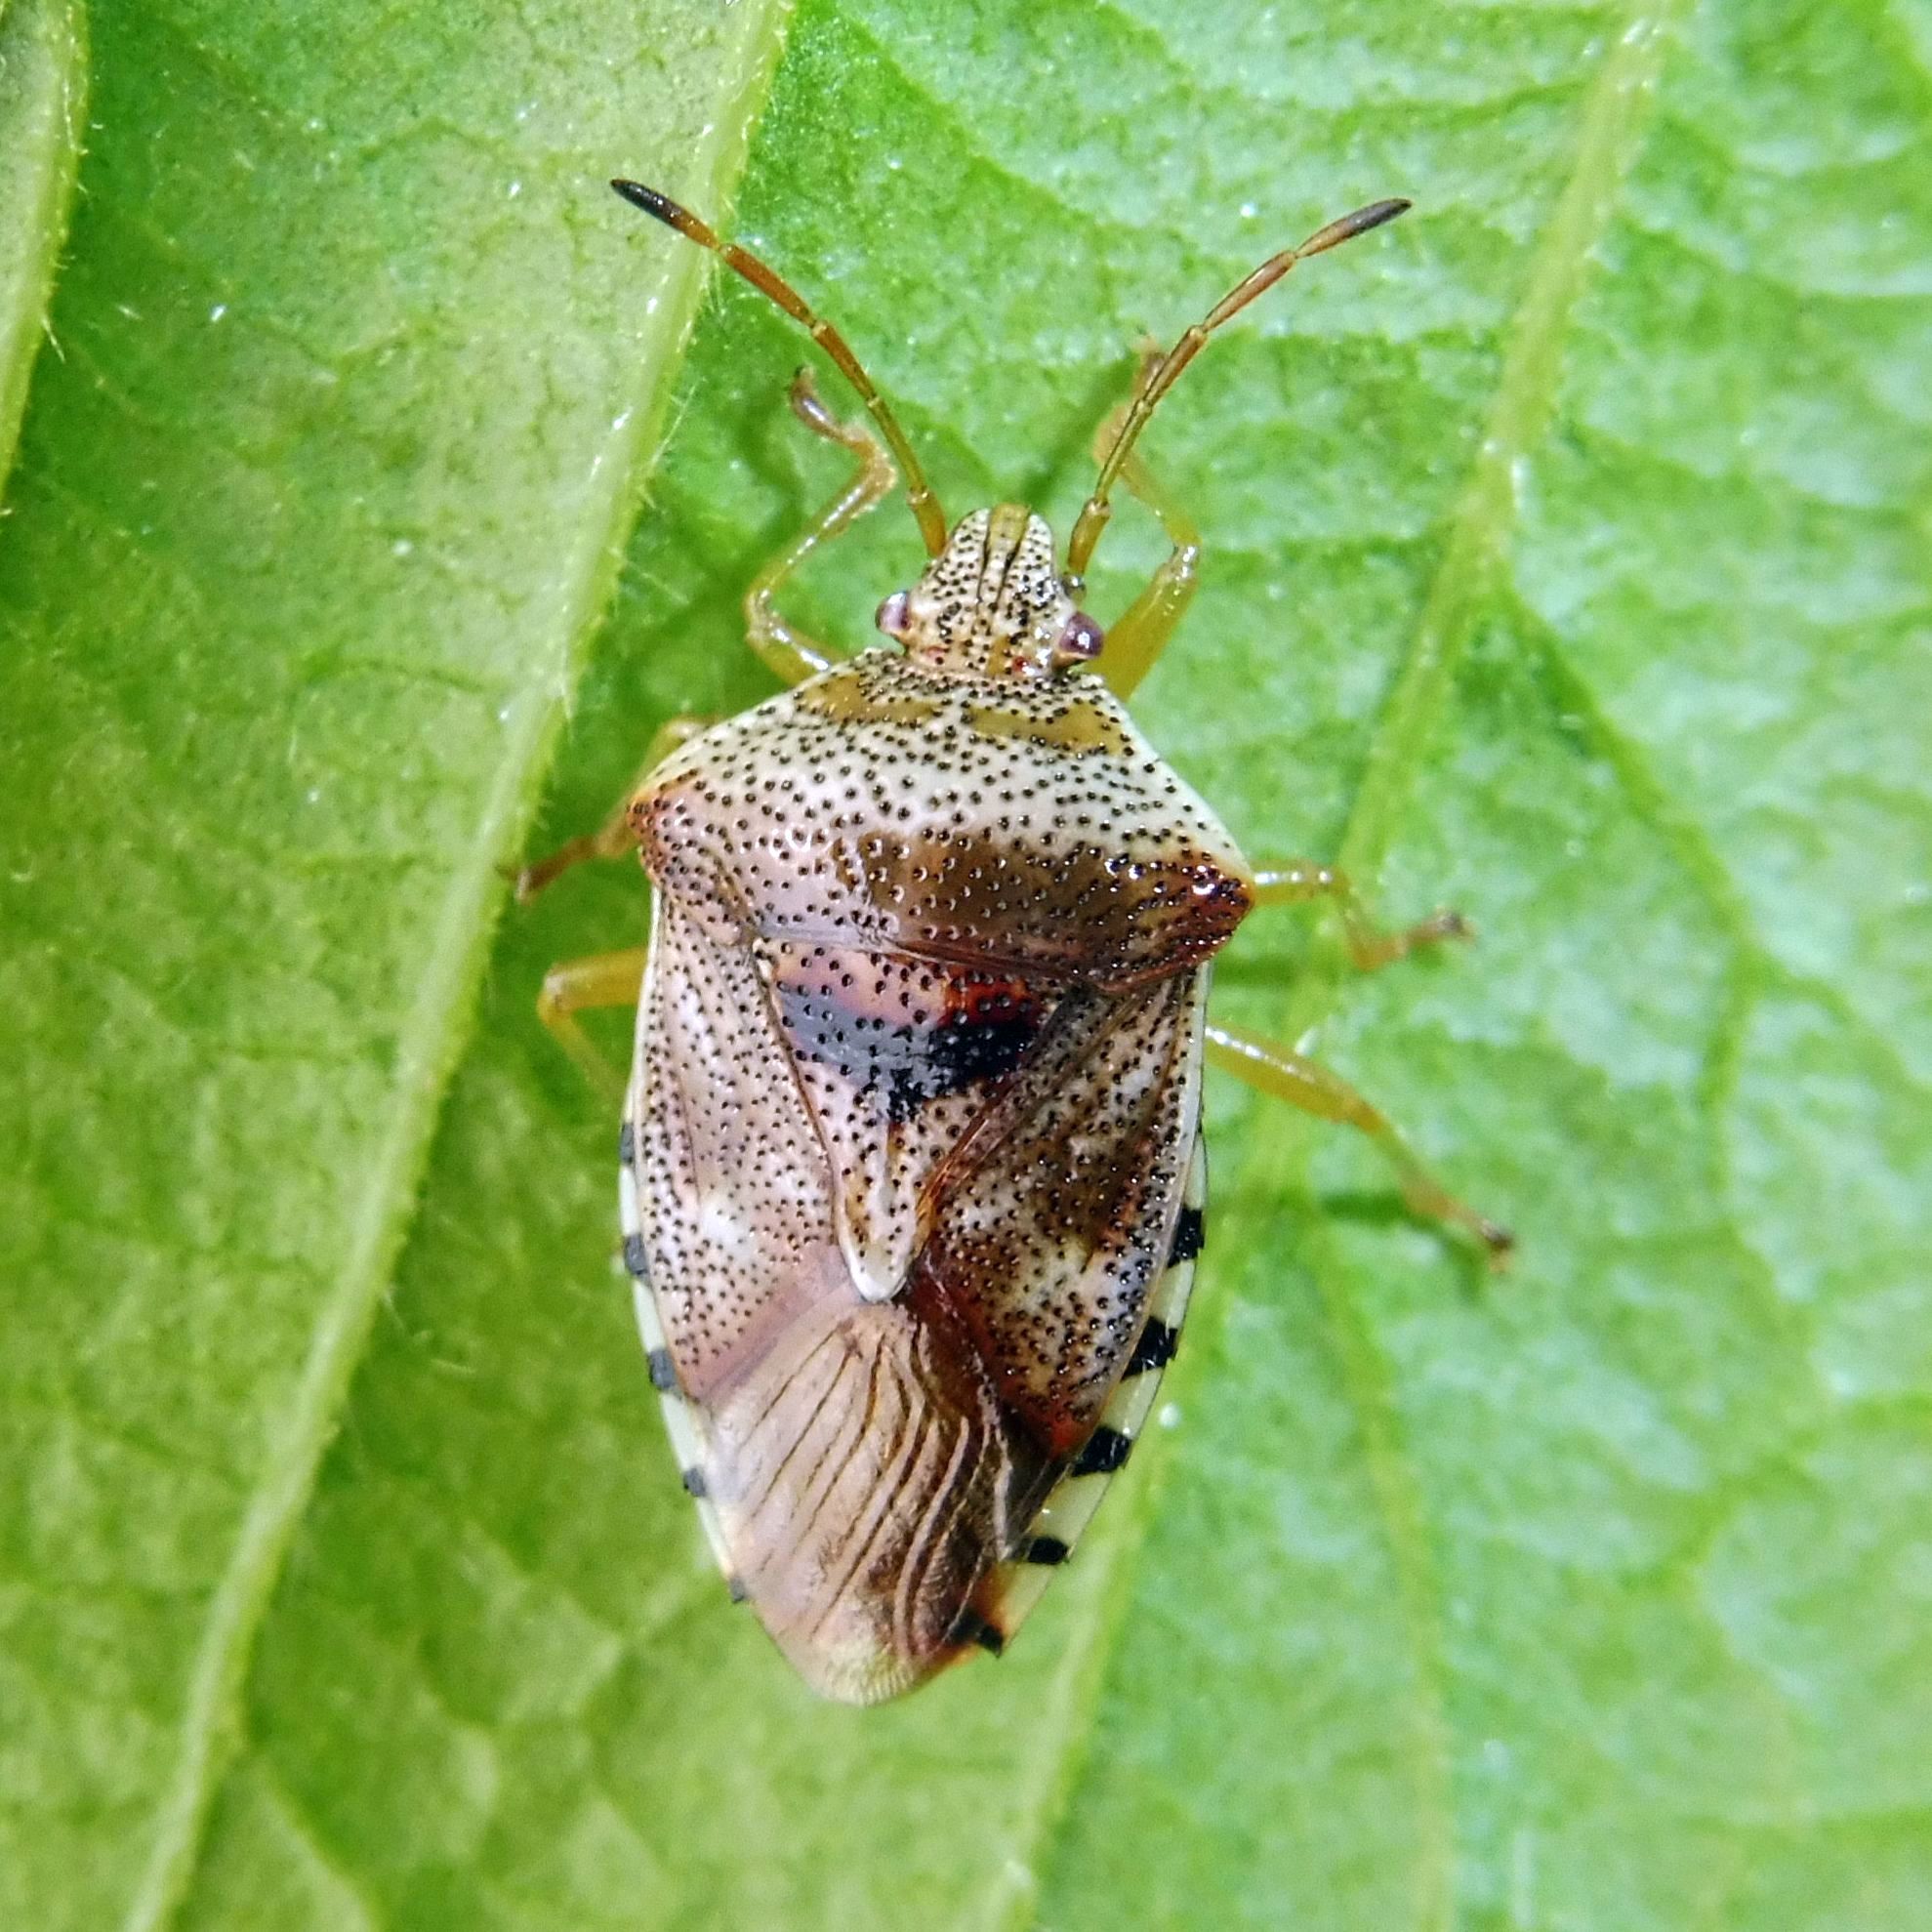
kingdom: Animalia
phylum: Arthropoda
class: Insecta
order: Hemiptera
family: Acanthosomatidae
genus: Elasmucha
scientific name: Elasmucha grisea
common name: Parent bug
